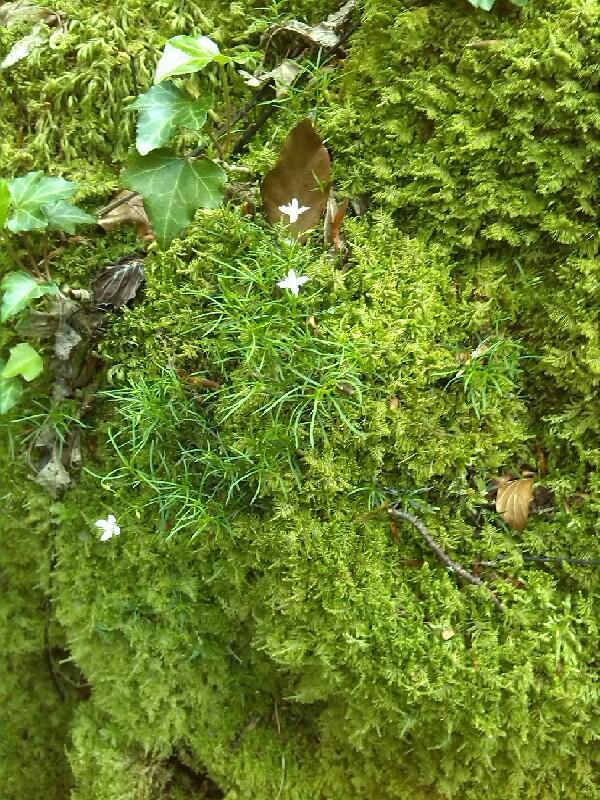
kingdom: Plantae
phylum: Tracheophyta
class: Magnoliopsida
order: Caryophyllales
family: Caryophyllaceae
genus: Moehringia
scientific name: Moehringia muscosa
